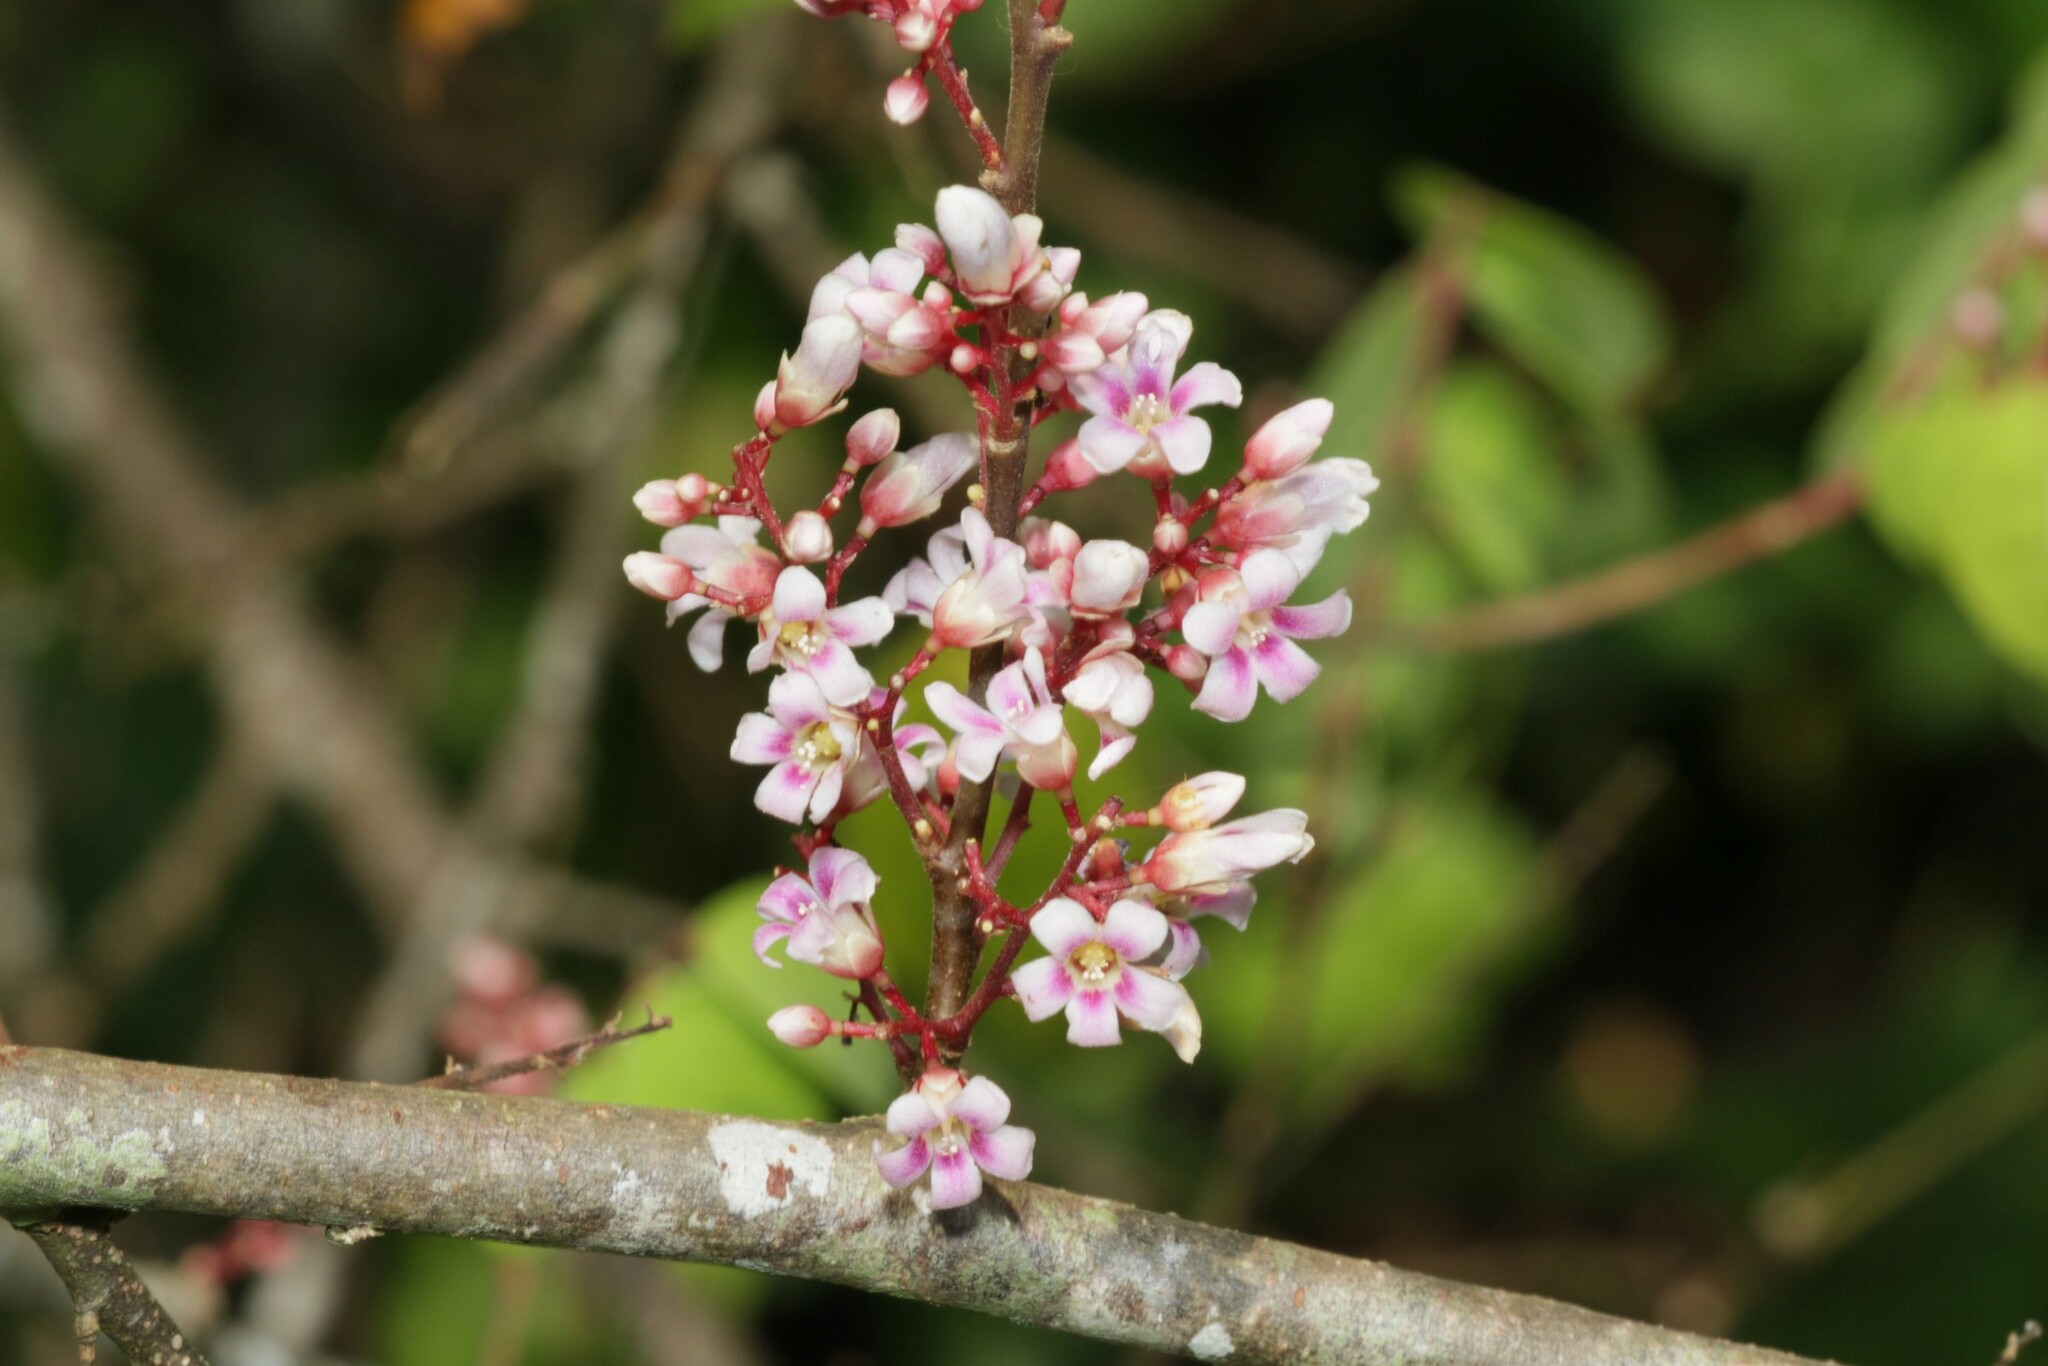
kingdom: Plantae
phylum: Tracheophyta
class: Magnoliopsida
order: Oxalidales
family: Oxalidaceae
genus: Averrhoa
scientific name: Averrhoa carambola
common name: Blimbing
